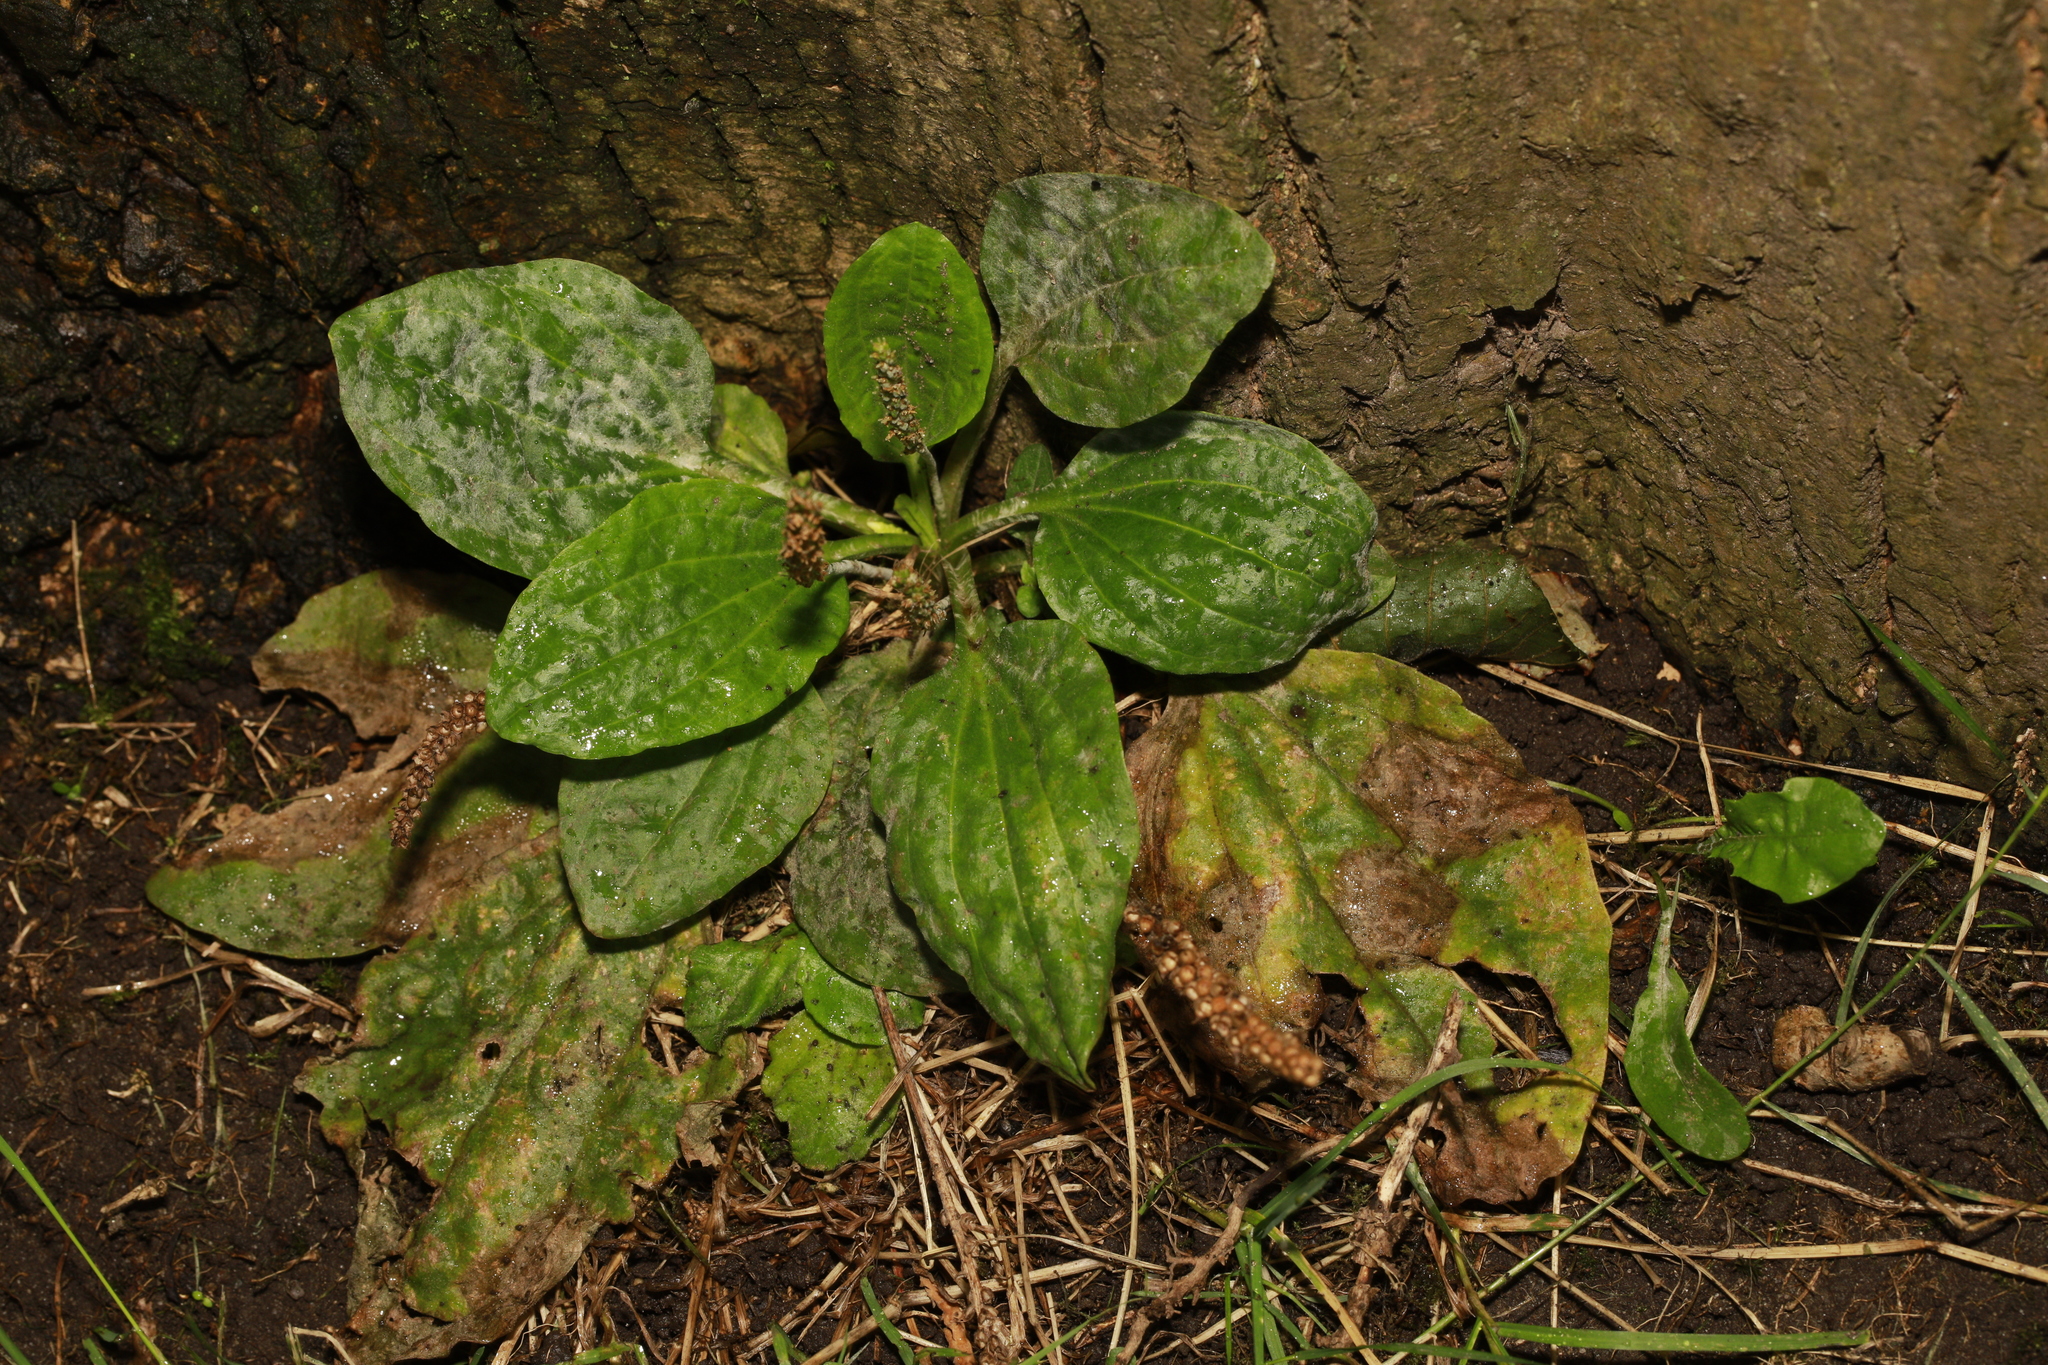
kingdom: Plantae
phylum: Tracheophyta
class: Magnoliopsida
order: Lamiales
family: Plantaginaceae
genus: Plantago
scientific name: Plantago major
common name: Common plantain
